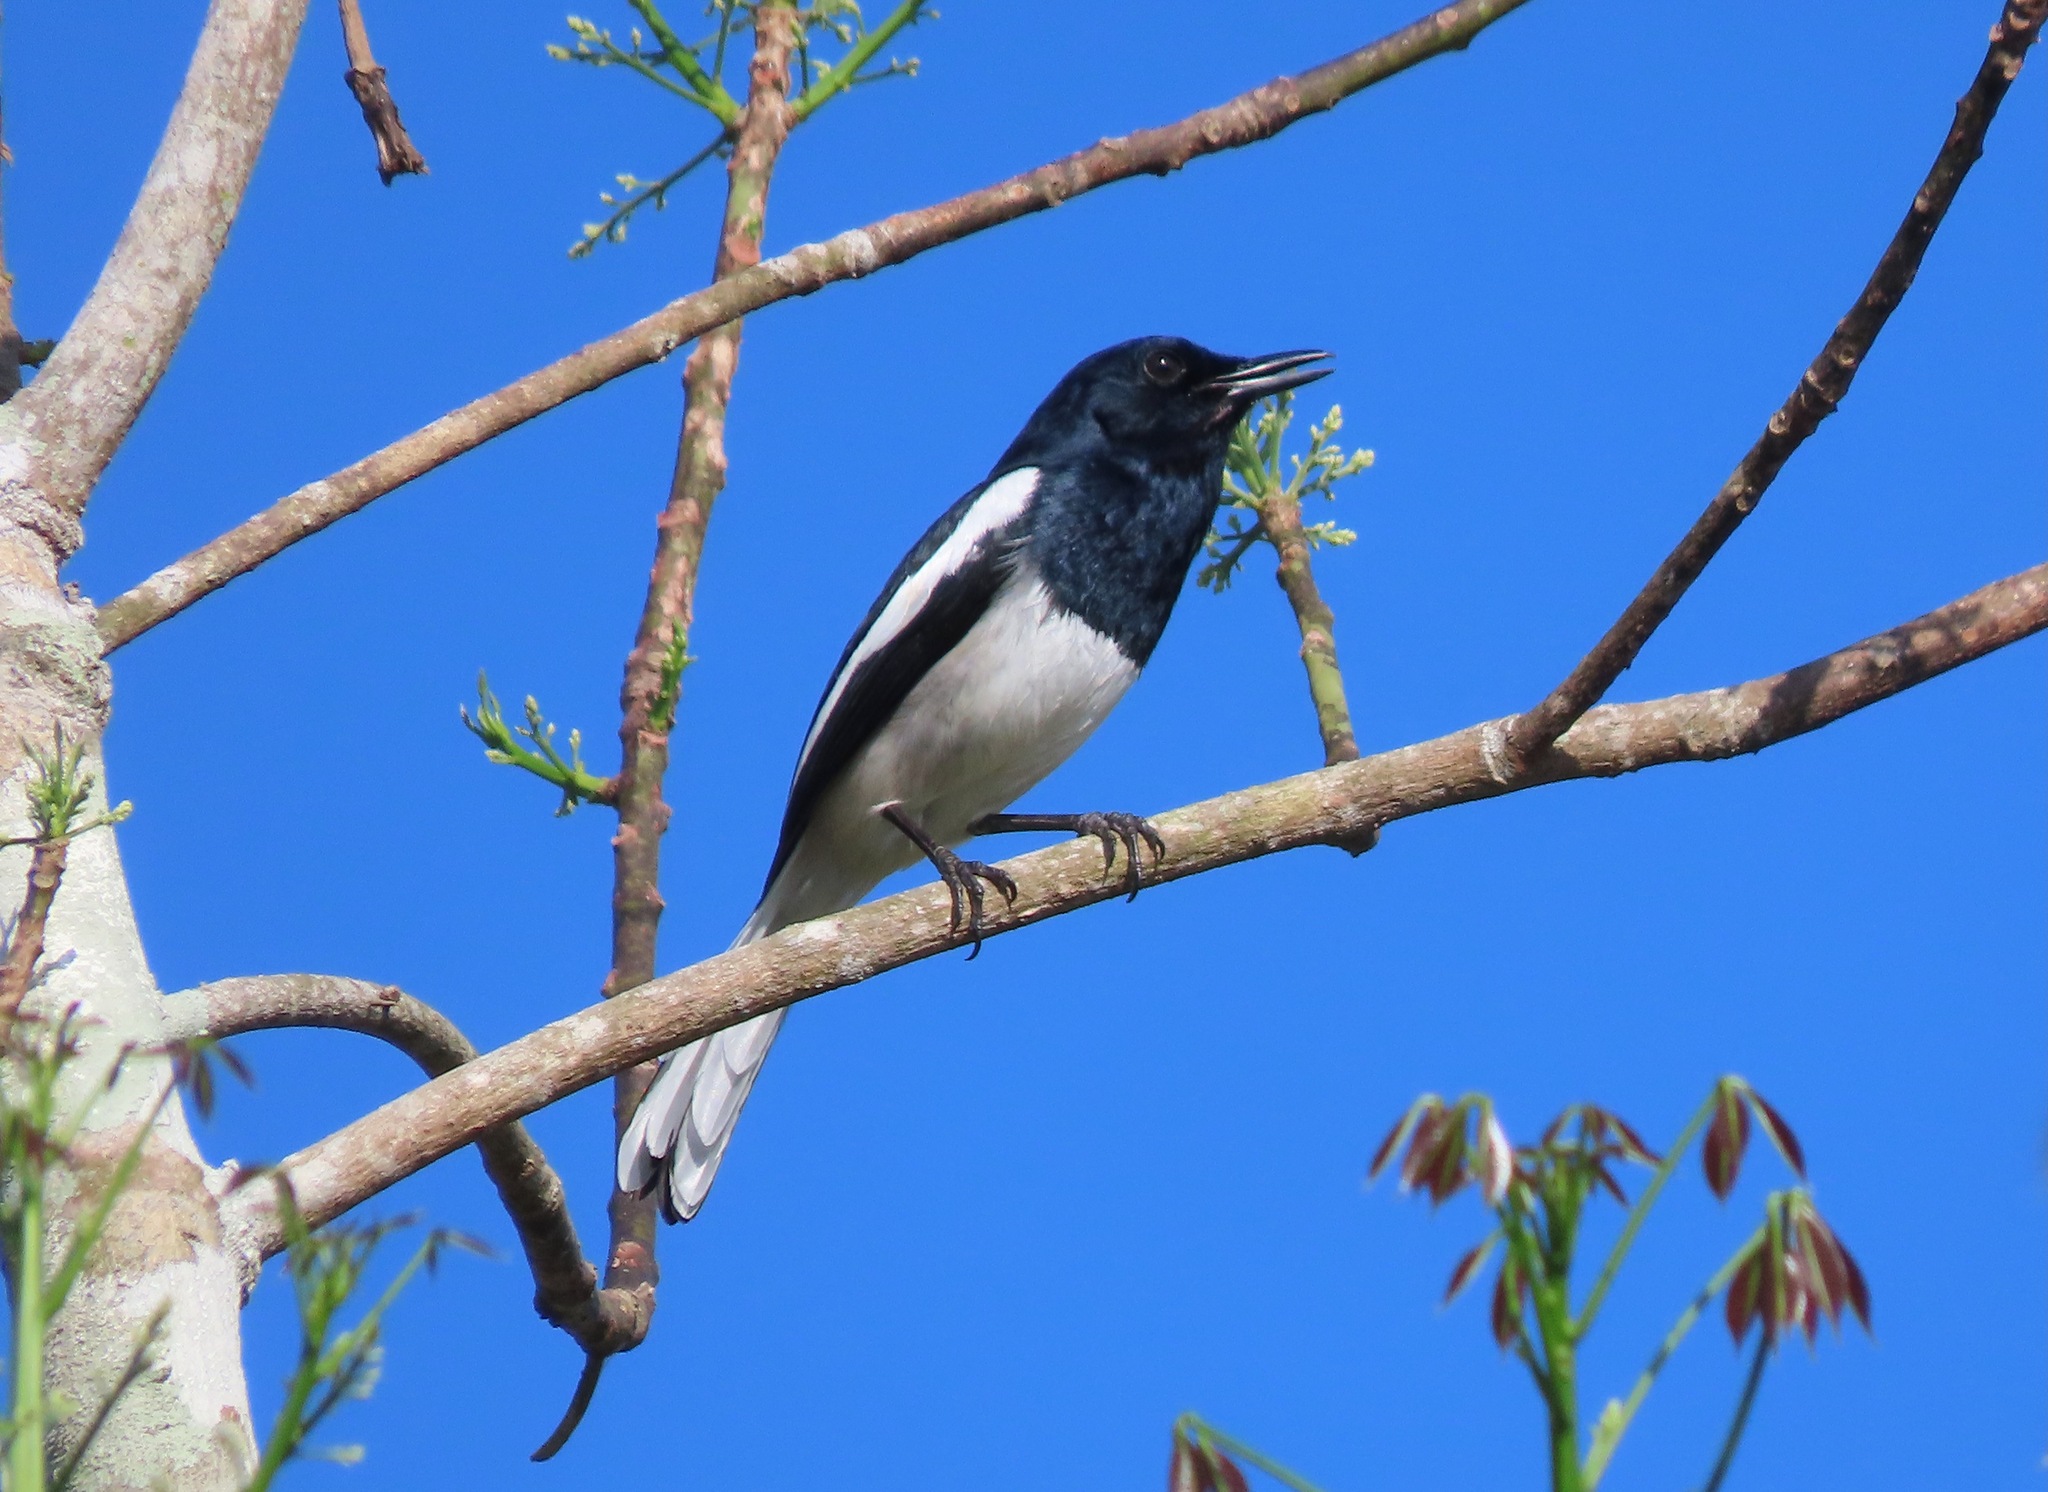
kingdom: Animalia
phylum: Chordata
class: Aves
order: Passeriformes
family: Muscicapidae
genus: Copsychus
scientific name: Copsychus saularis
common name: Oriental magpie-robin
